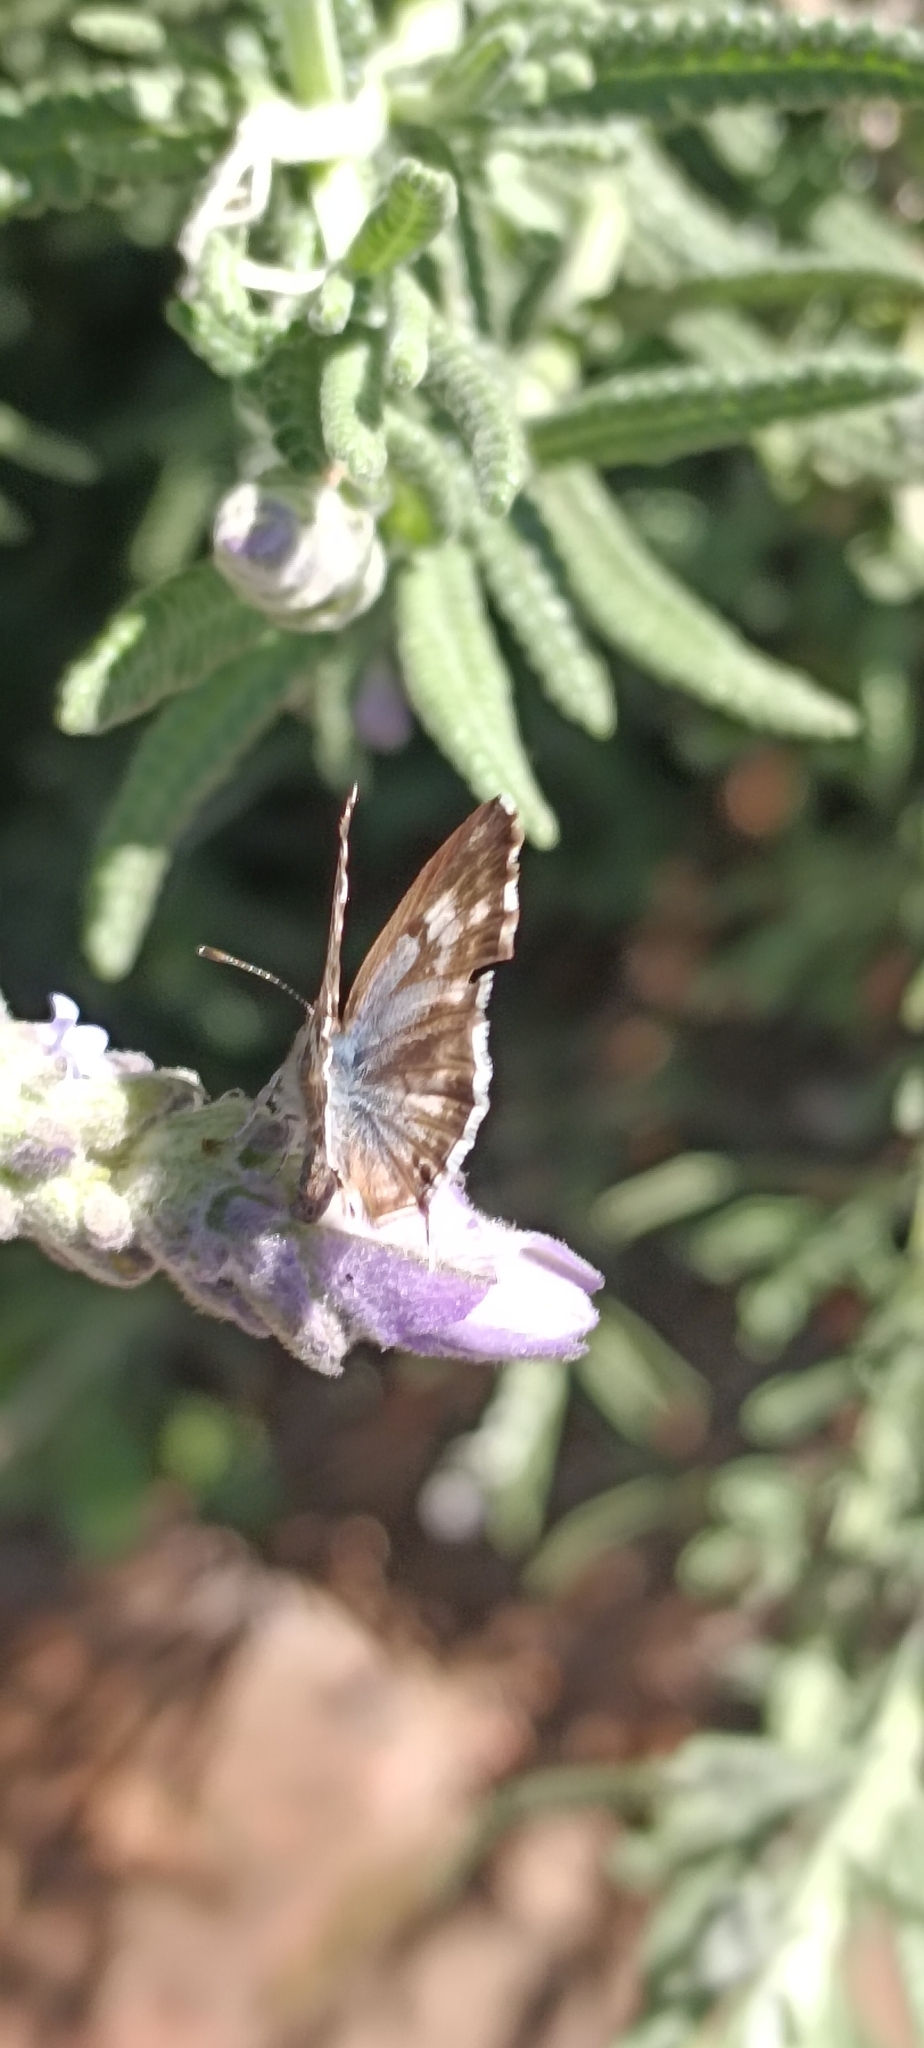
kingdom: Animalia
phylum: Arthropoda
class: Insecta
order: Lepidoptera
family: Lycaenidae
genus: Cacyreus
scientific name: Cacyreus lingeus
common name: Bush bronze
